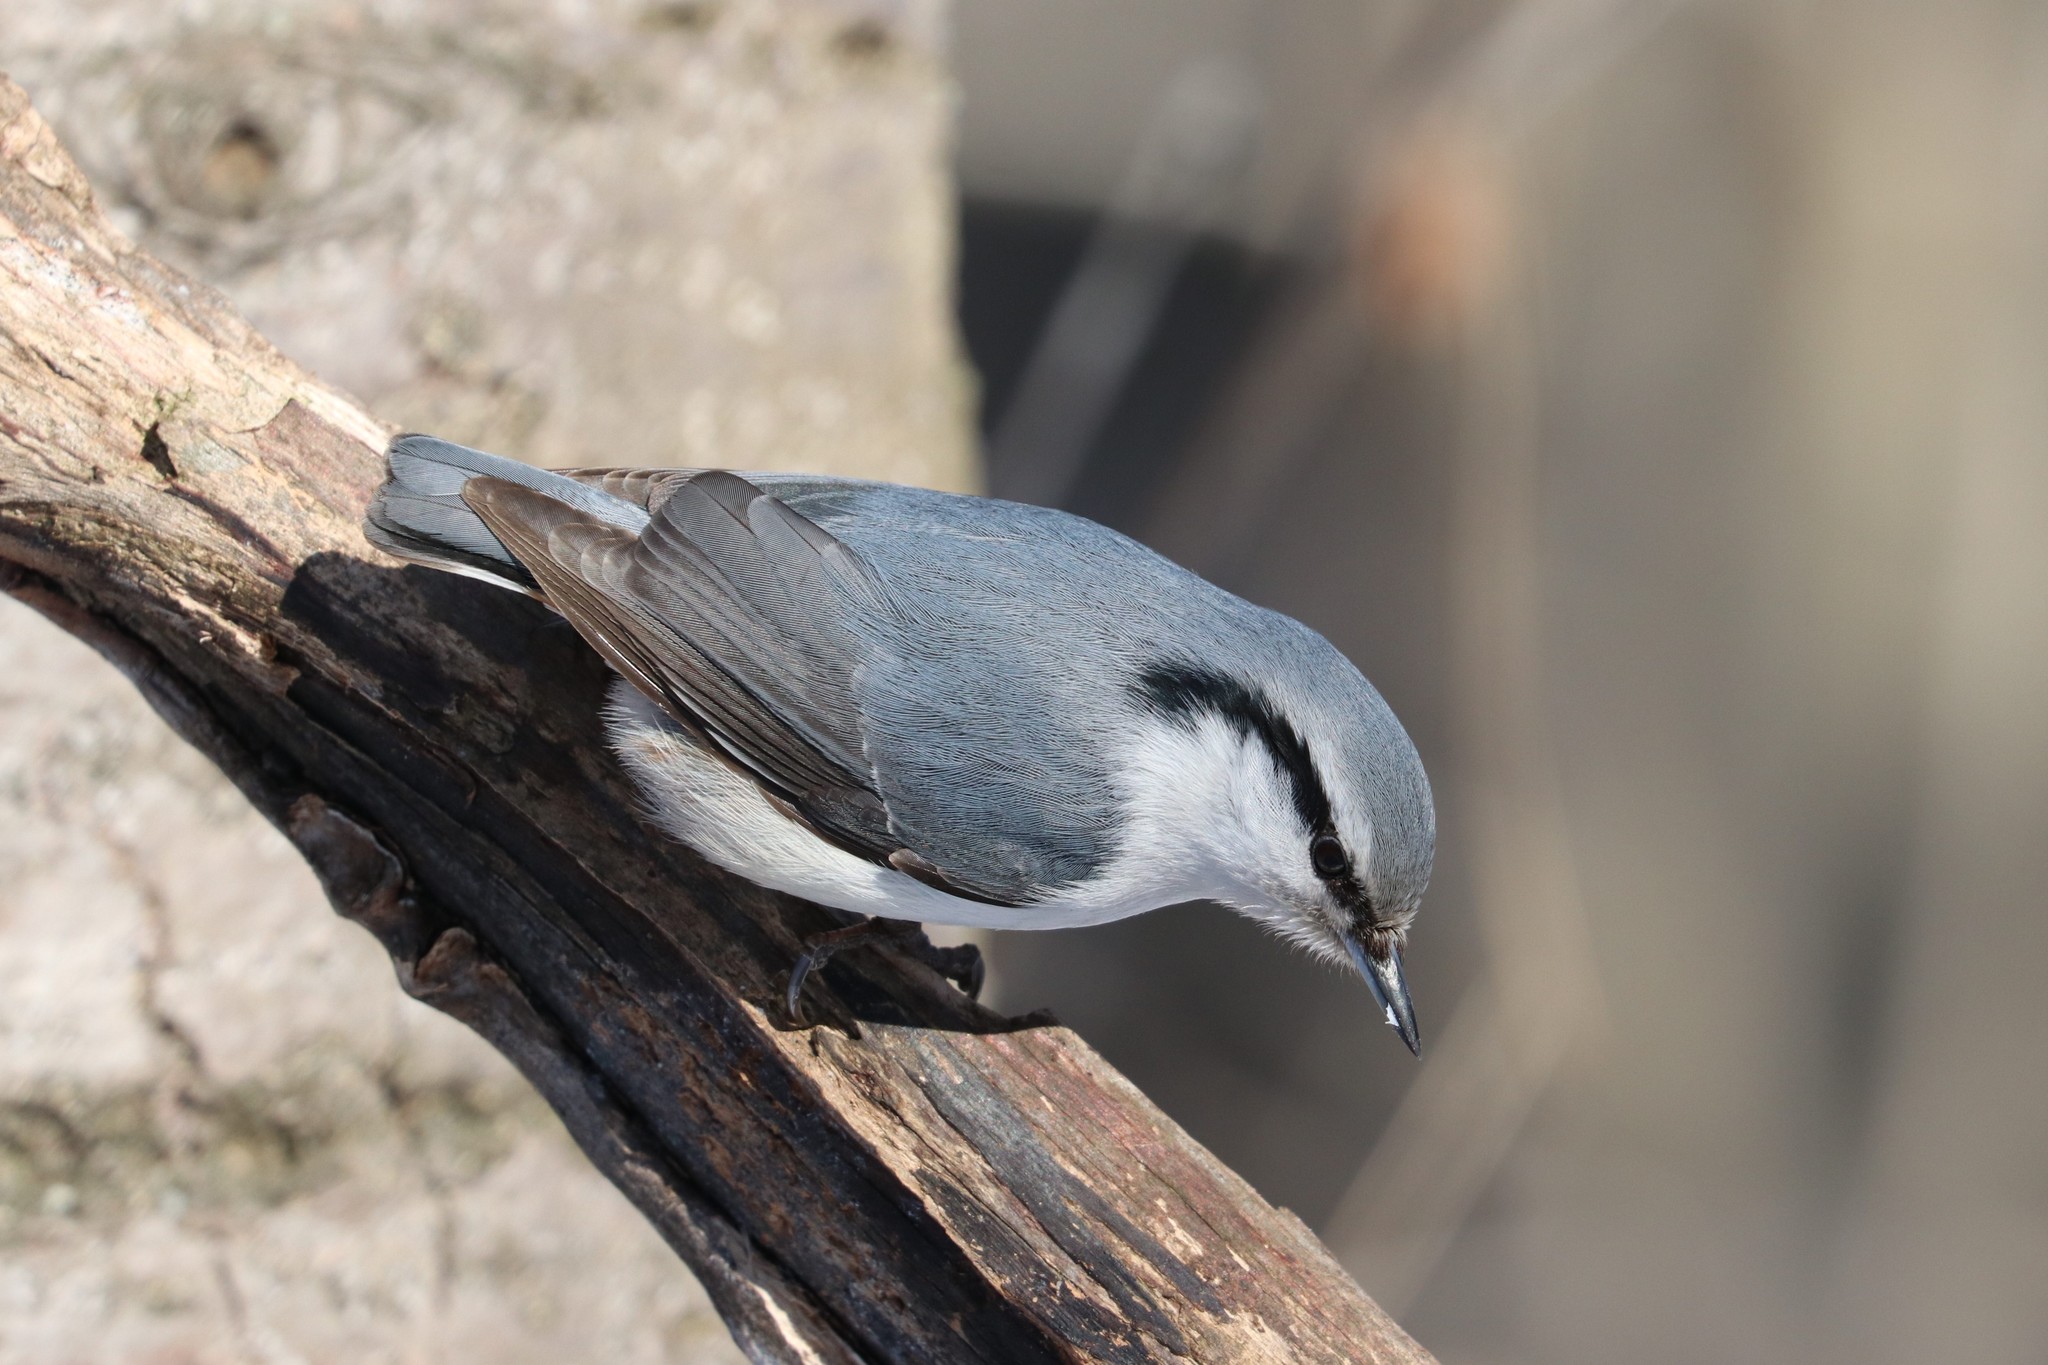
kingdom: Animalia
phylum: Chordata
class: Aves
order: Passeriformes
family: Sittidae
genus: Sitta
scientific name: Sitta europaea
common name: Eurasian nuthatch
